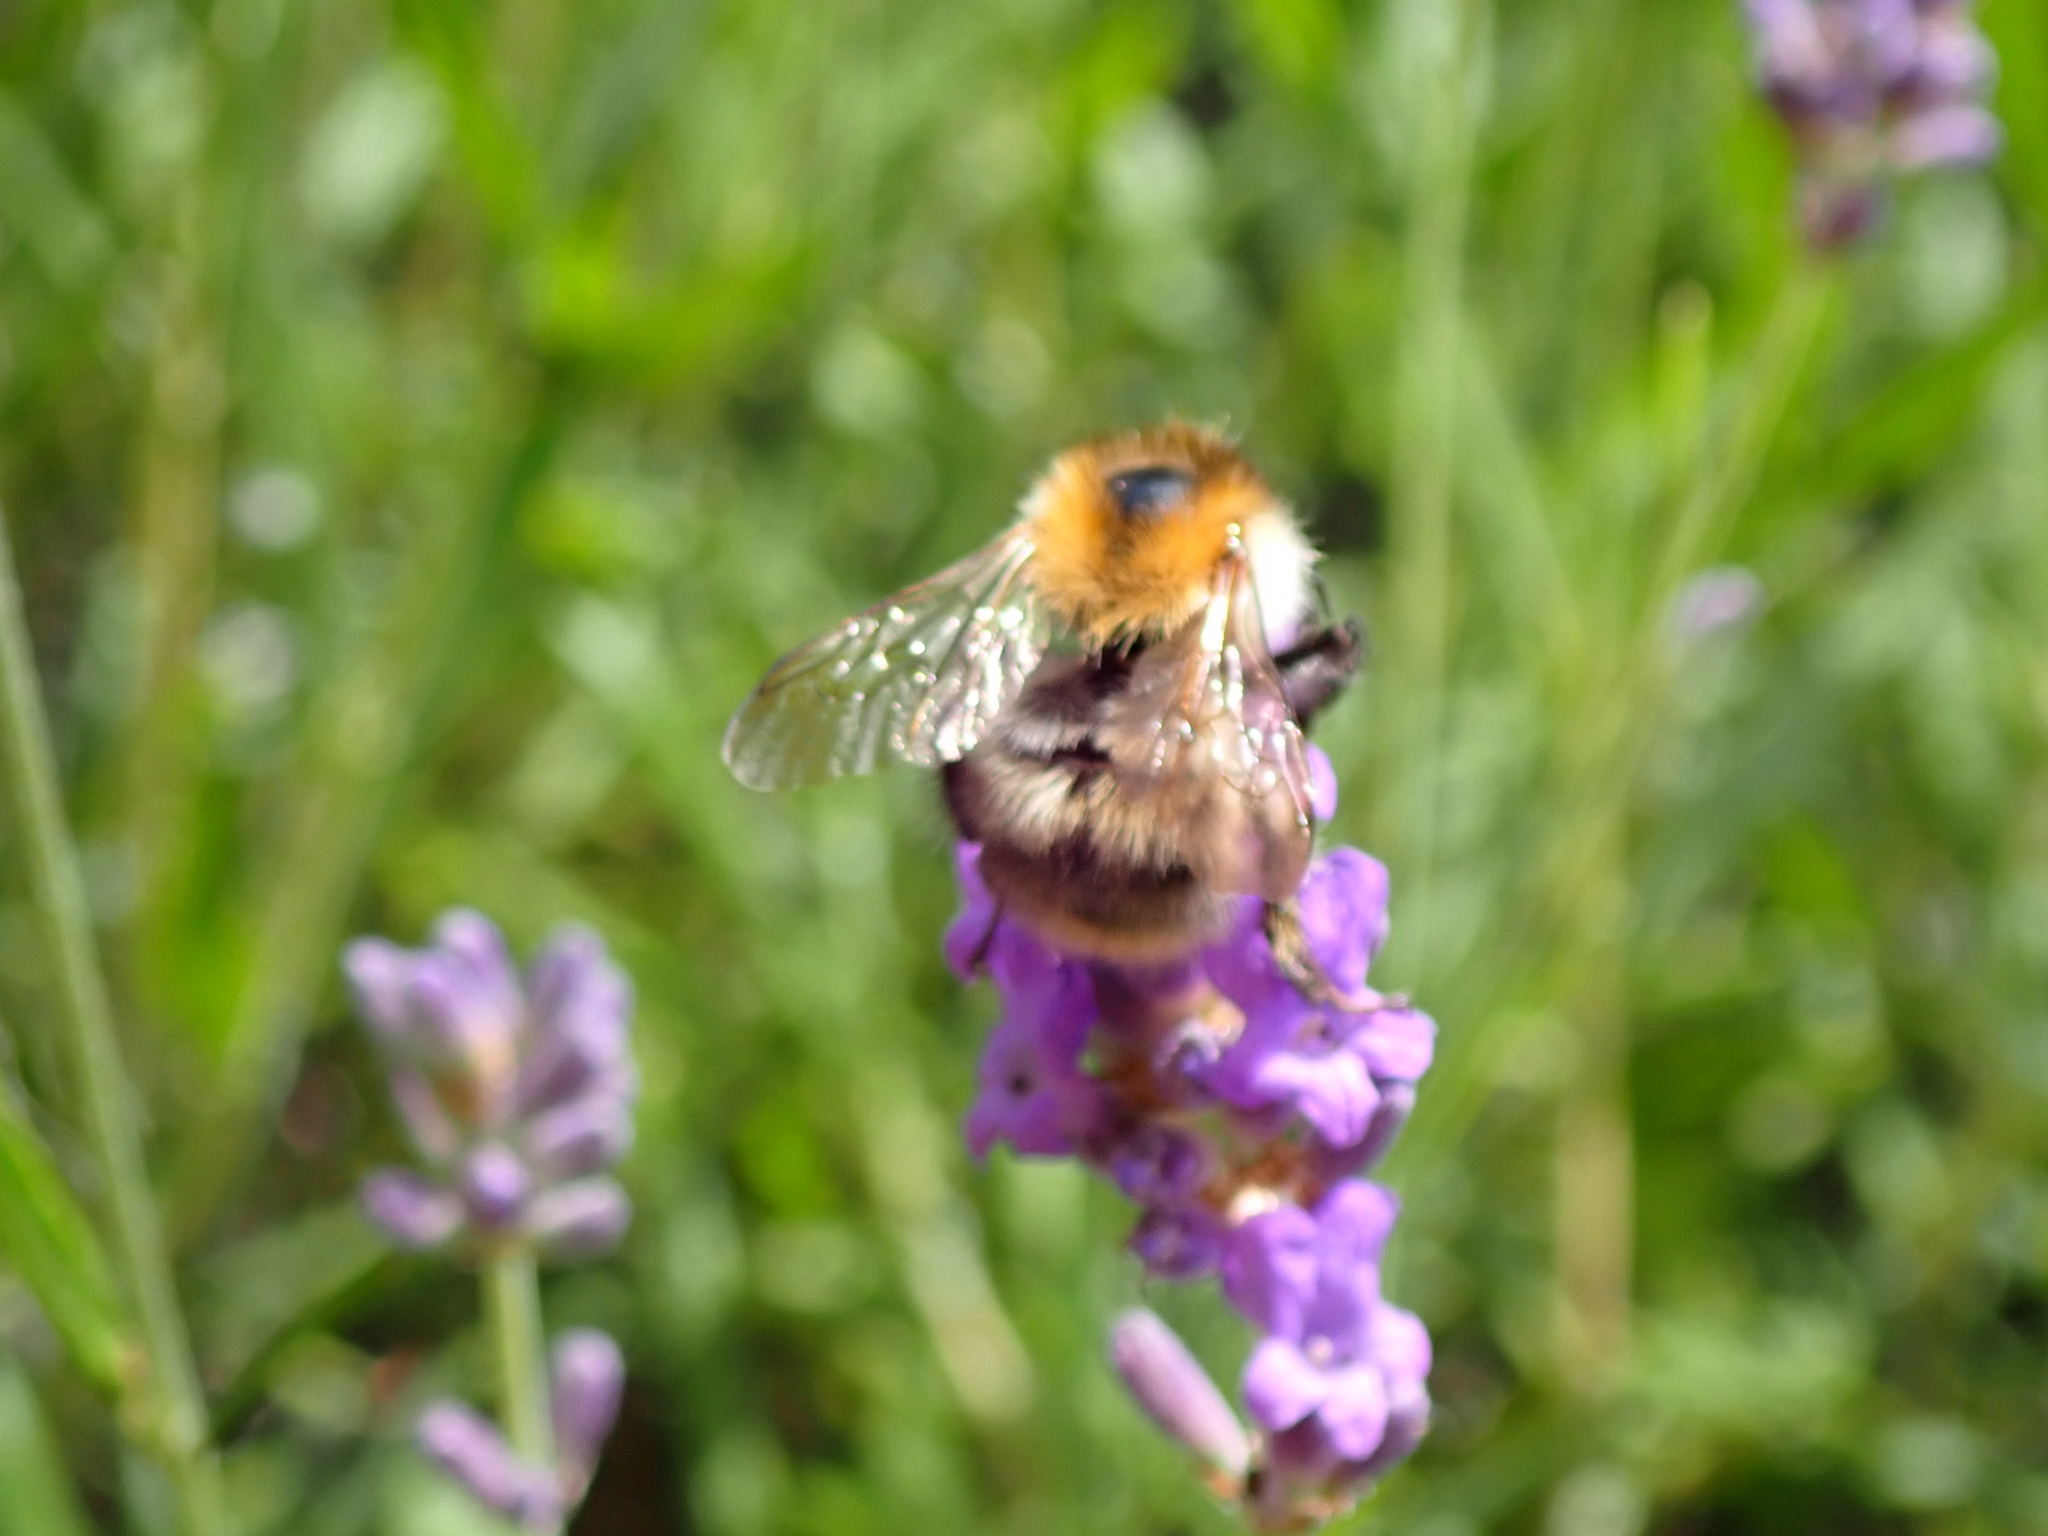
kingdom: Animalia
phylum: Arthropoda
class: Insecta
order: Hymenoptera
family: Apidae
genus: Bombus
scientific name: Bombus pascuorum
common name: Common carder bee
